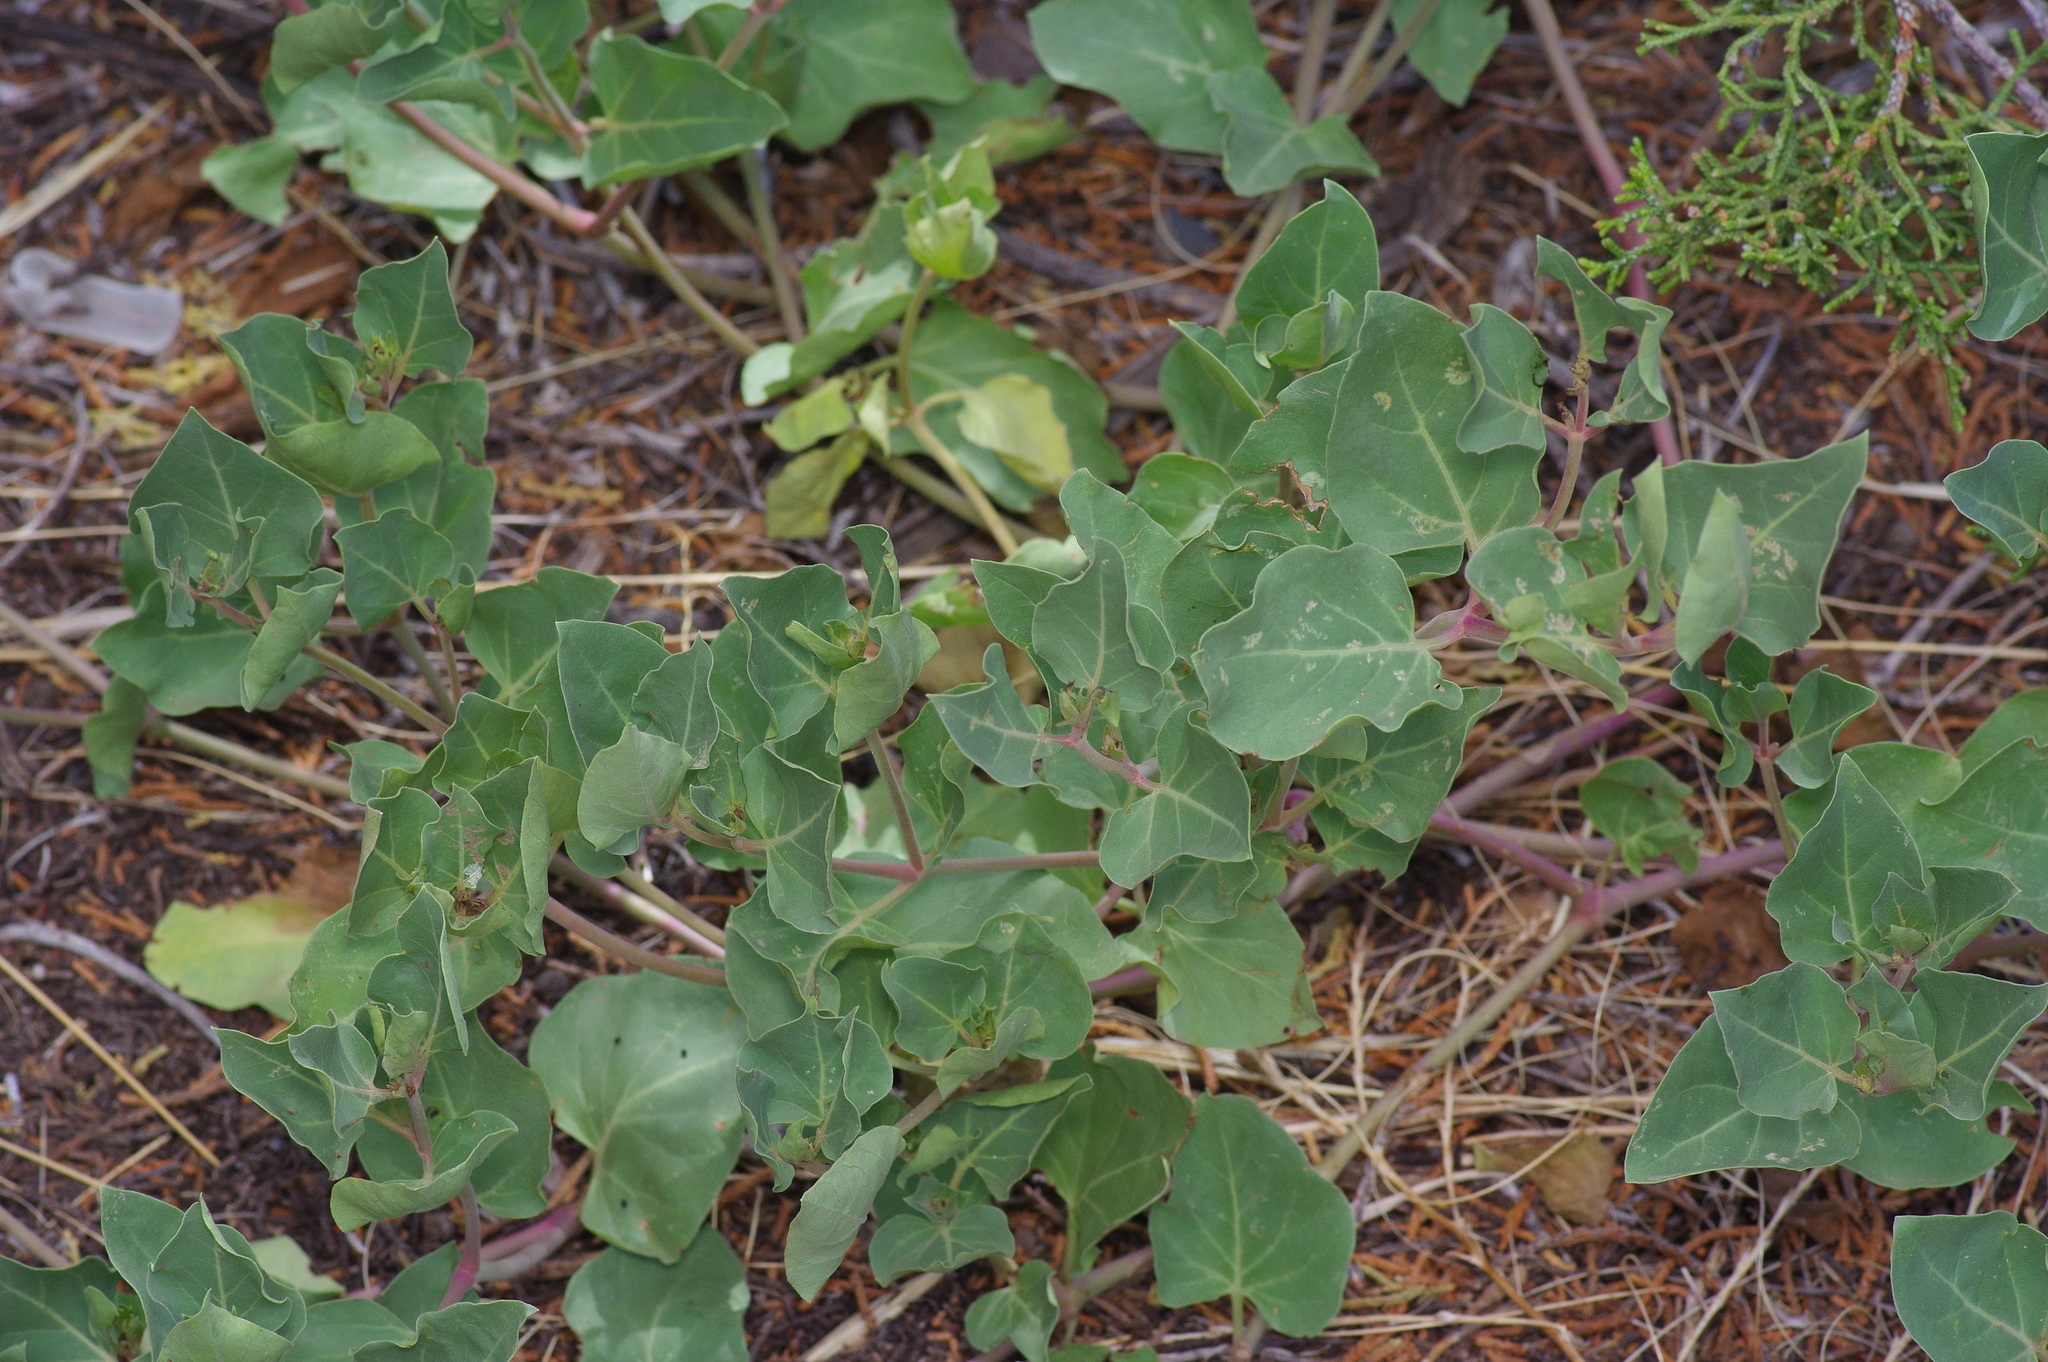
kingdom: Plantae
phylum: Tracheophyta
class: Magnoliopsida
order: Caryophyllales
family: Nyctaginaceae
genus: Mirabilis
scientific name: Mirabilis multiflora
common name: Froebel's four-o'clock
